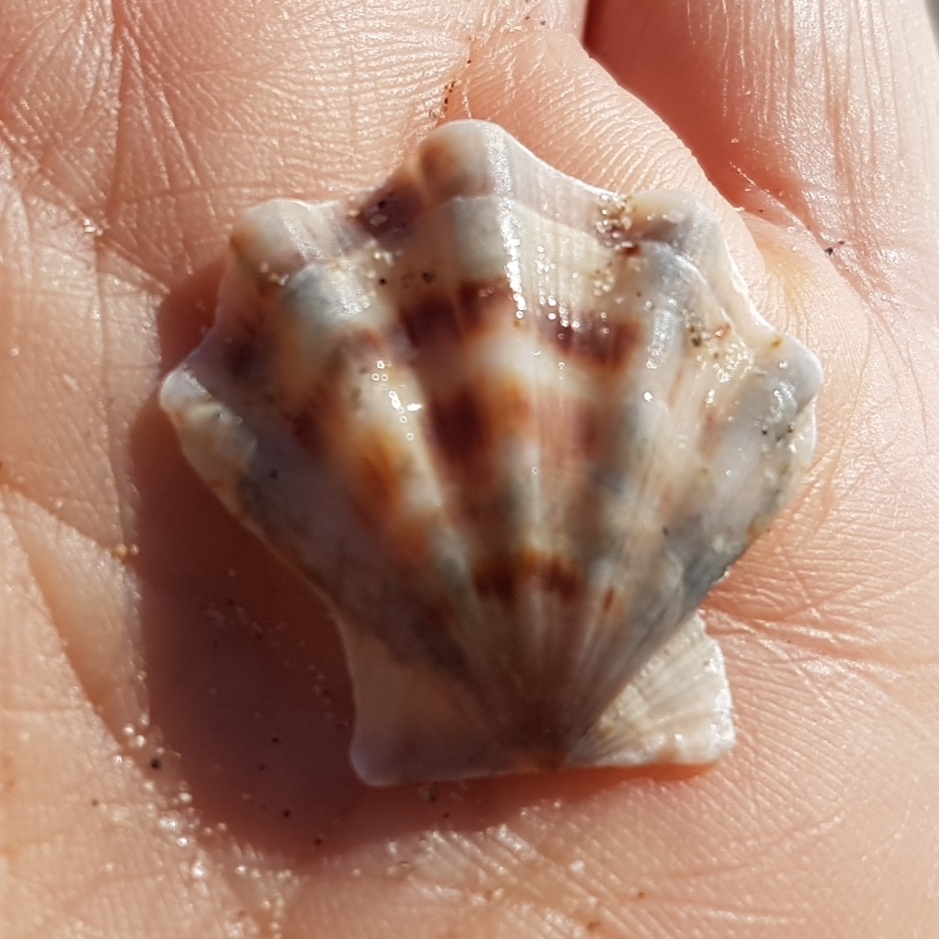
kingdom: Animalia
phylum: Mollusca
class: Bivalvia
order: Pectinida
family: Pectinidae
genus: Flexopecten
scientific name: Flexopecten flexuosus
